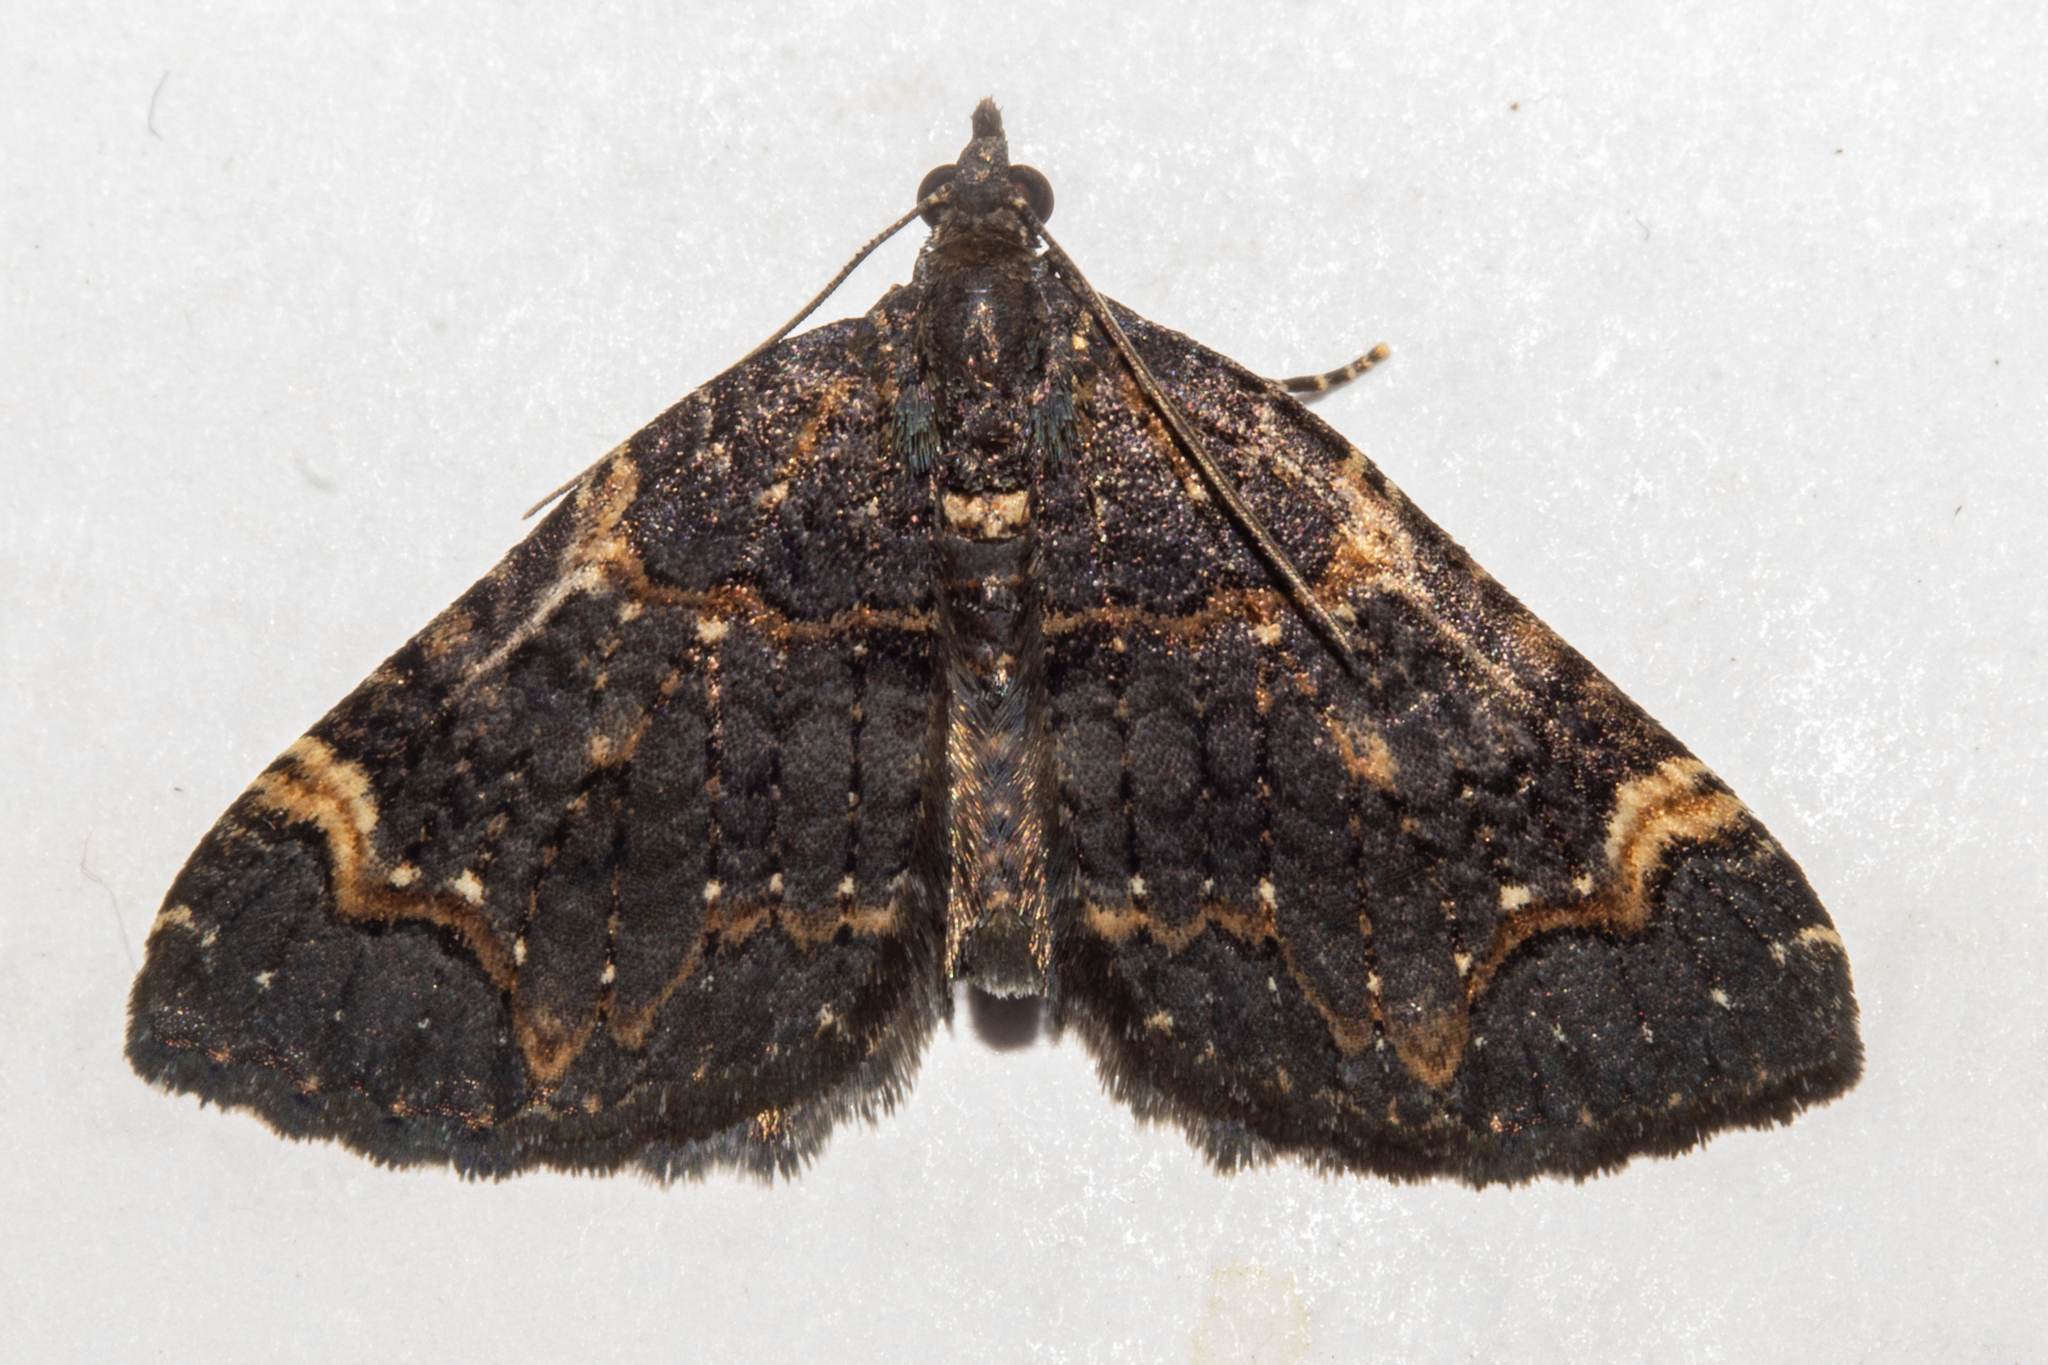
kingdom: Animalia
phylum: Arthropoda
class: Insecta
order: Lepidoptera
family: Geometridae
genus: Hydriomena
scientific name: Hydriomena arida
